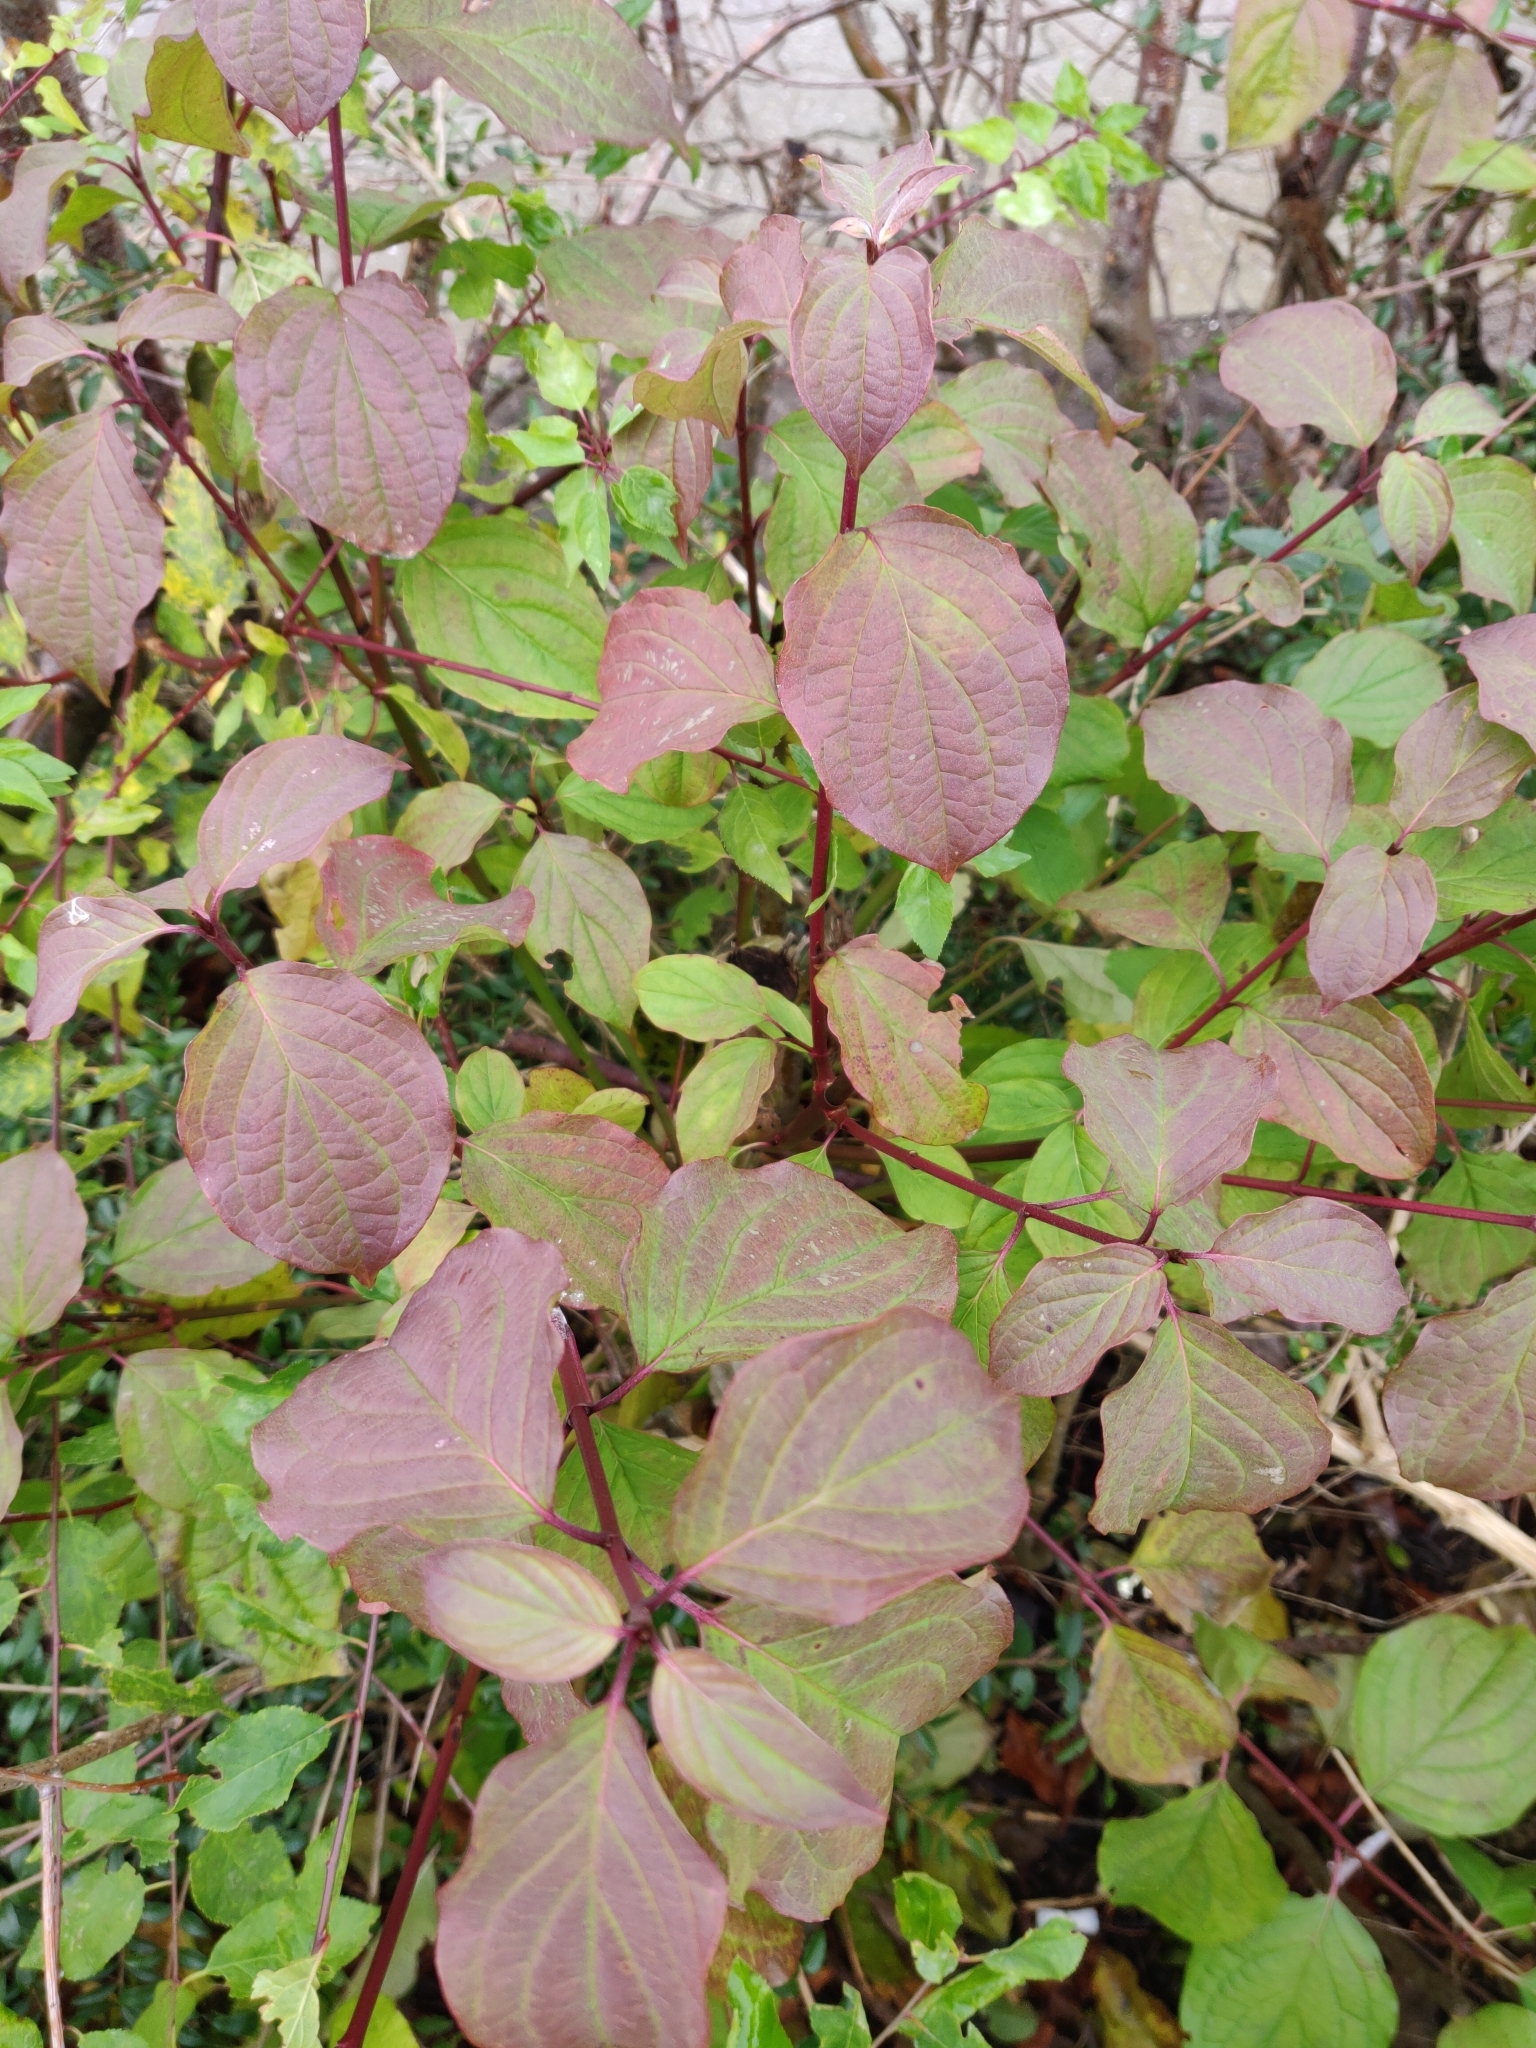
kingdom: Plantae
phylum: Tracheophyta
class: Magnoliopsida
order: Cornales
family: Cornaceae
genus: Cornus
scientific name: Cornus sanguinea
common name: Dogwood
